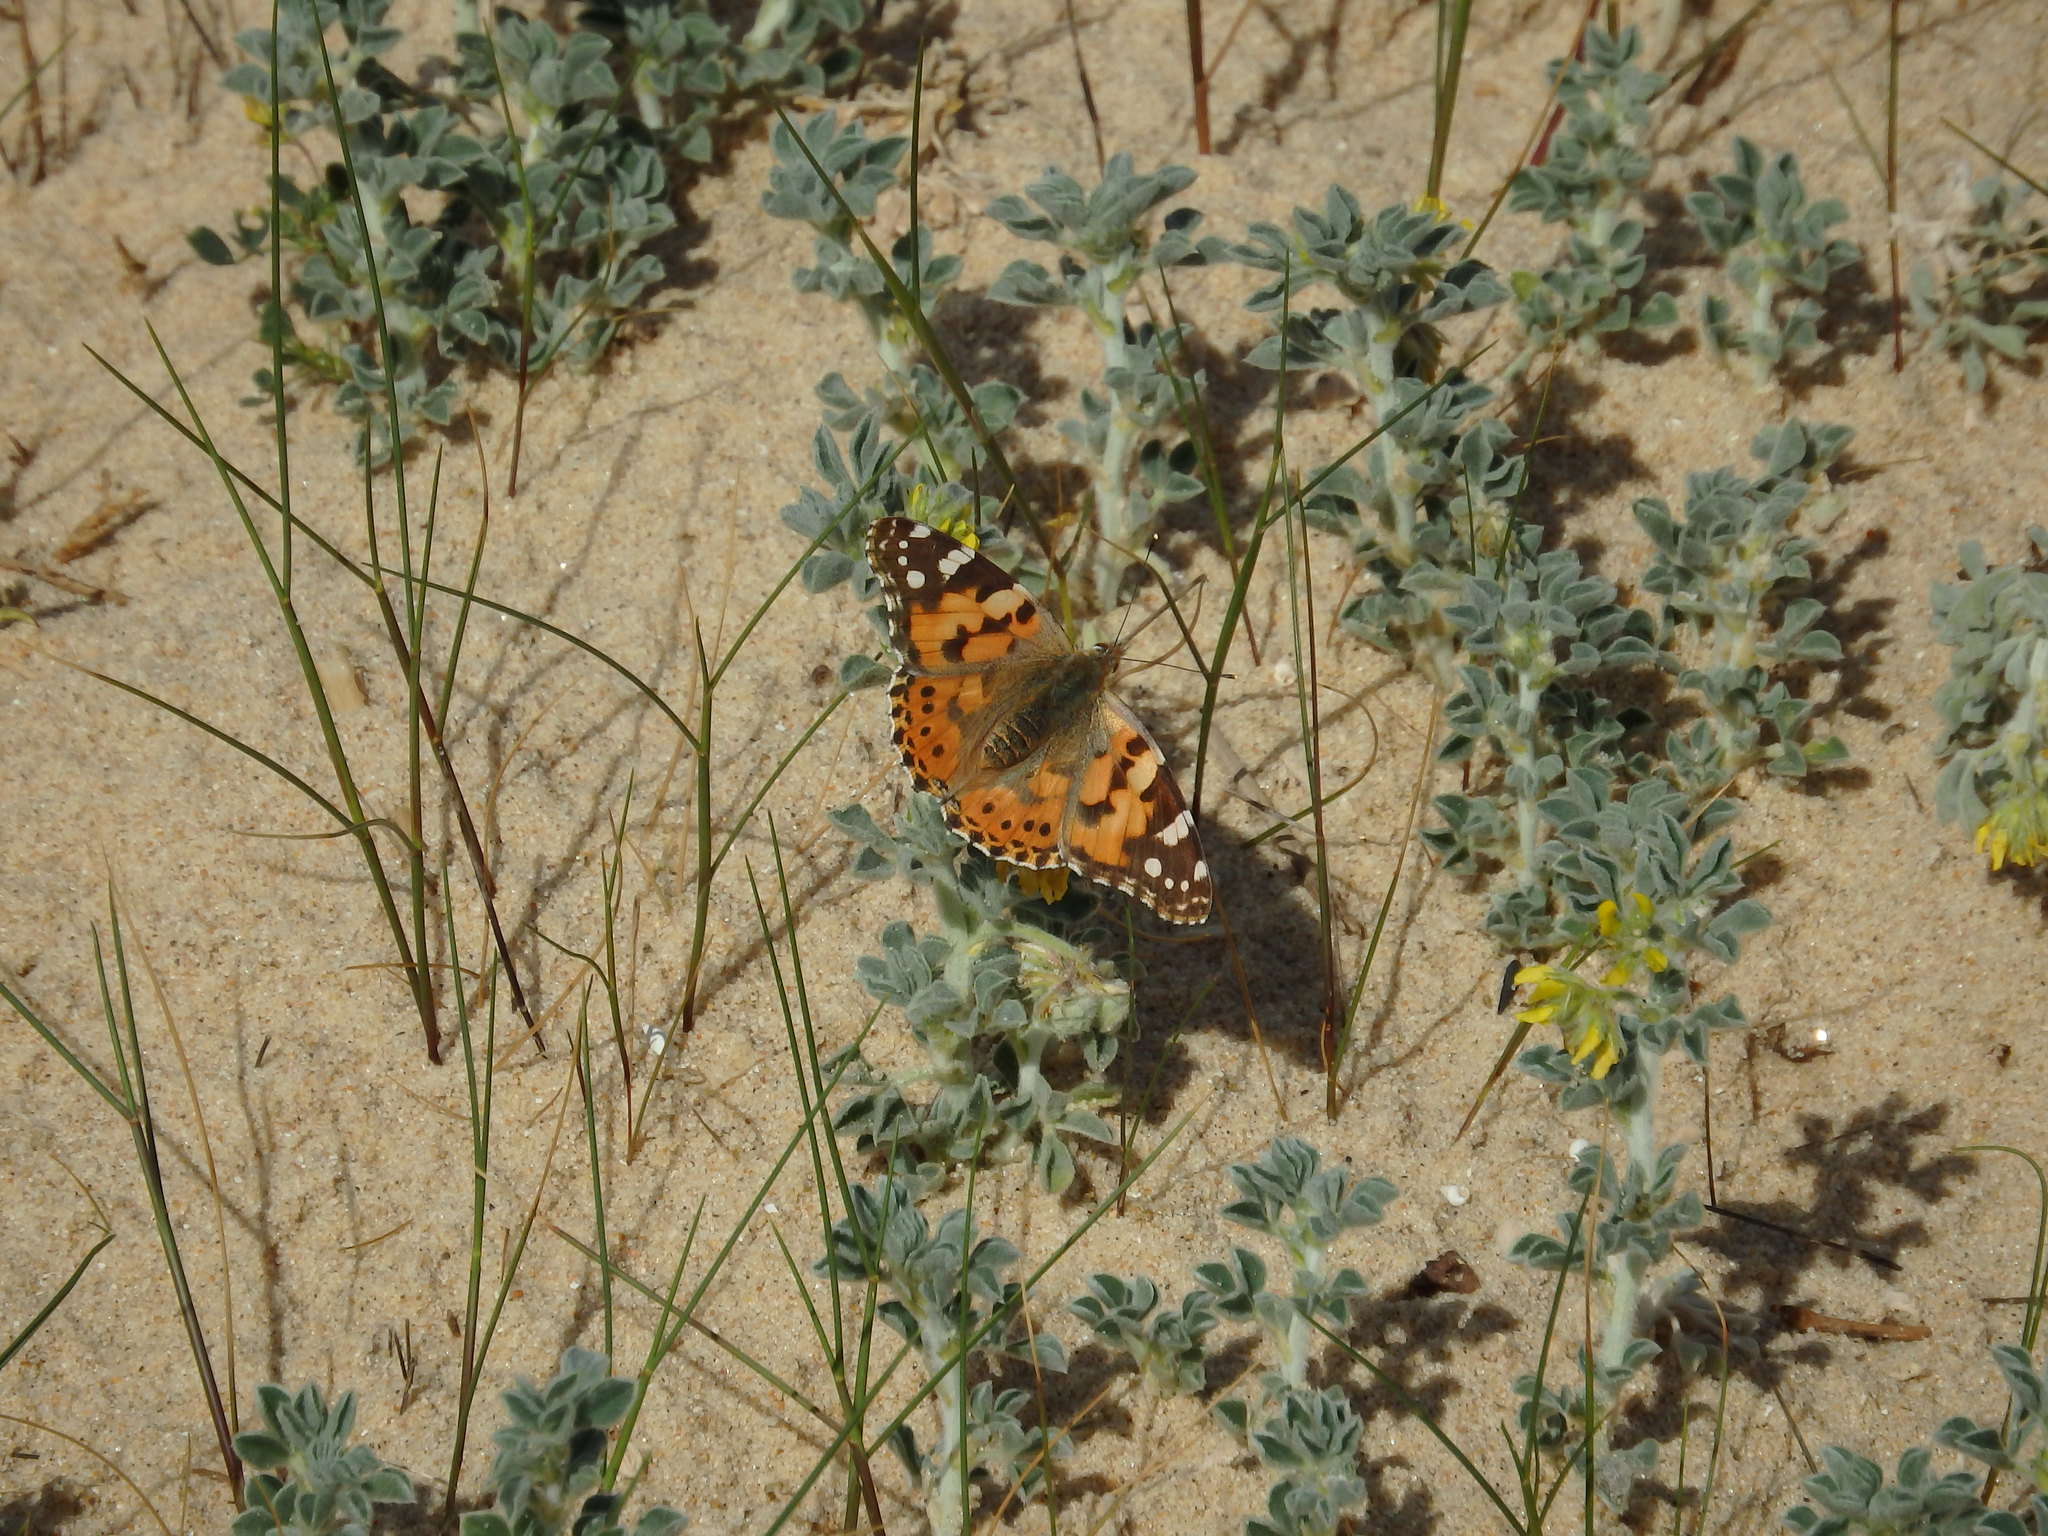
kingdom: Animalia
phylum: Arthropoda
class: Insecta
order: Lepidoptera
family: Nymphalidae
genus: Vanessa
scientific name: Vanessa cardui
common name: Painted lady
